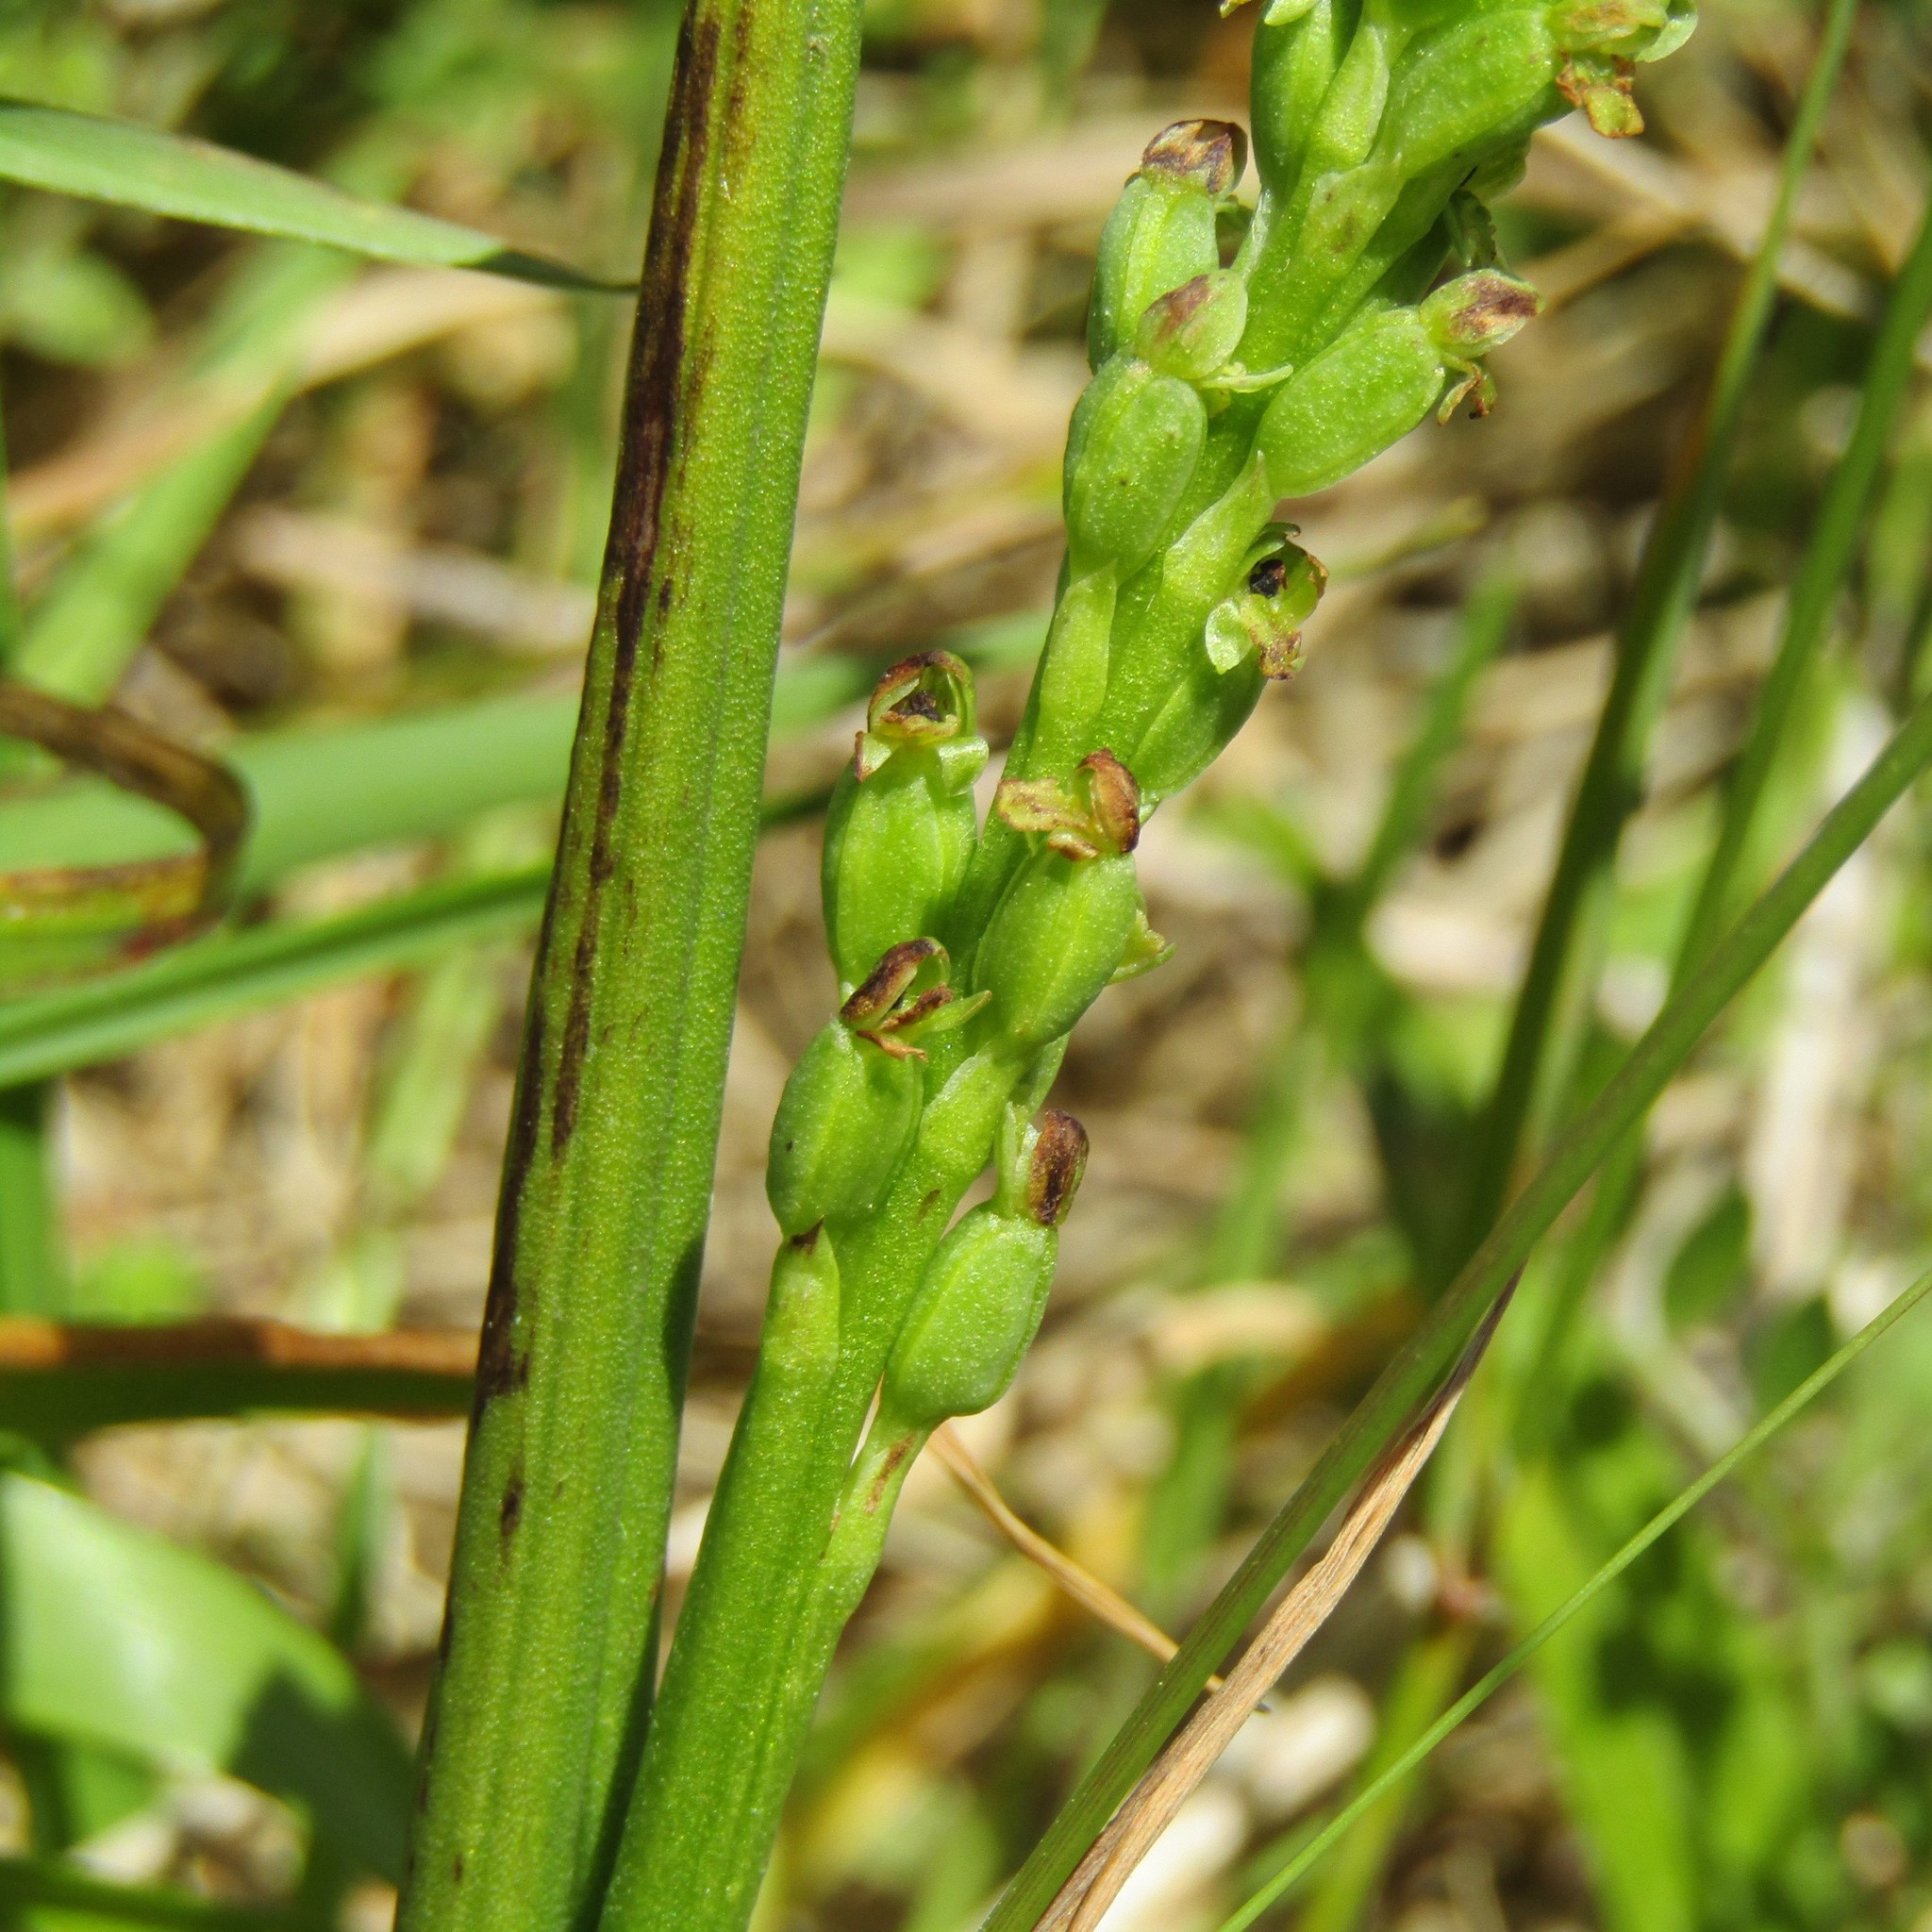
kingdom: Plantae
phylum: Tracheophyta
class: Liliopsida
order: Asparagales
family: Orchidaceae
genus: Microtis
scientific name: Microtis unifolia
